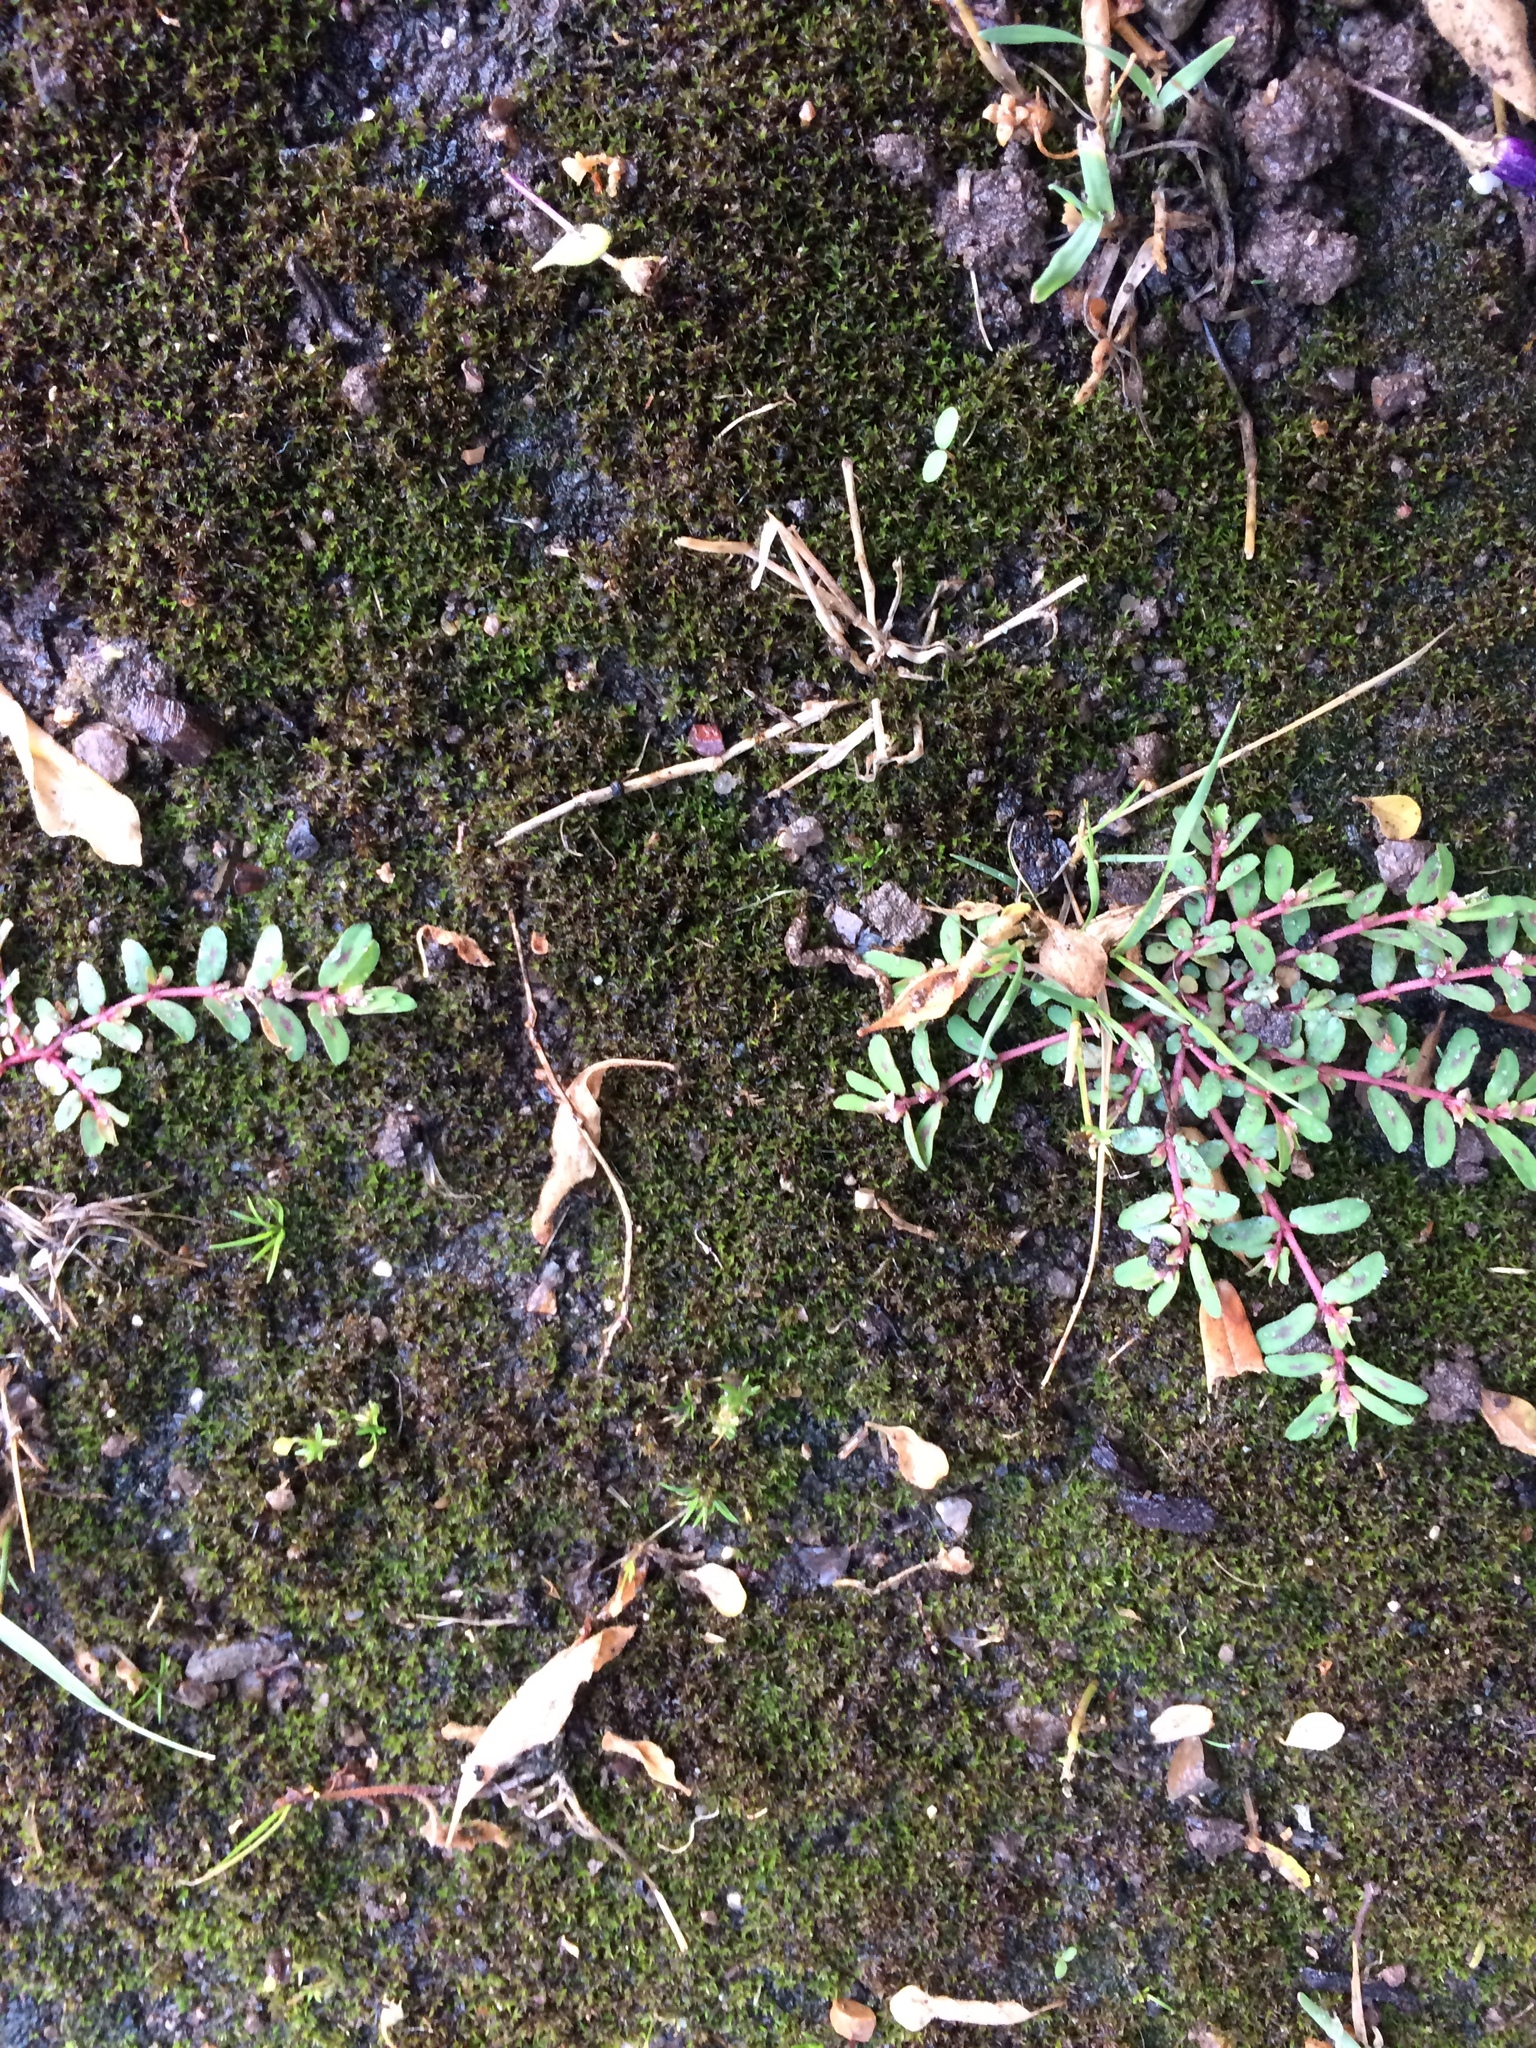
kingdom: Plantae
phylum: Tracheophyta
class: Magnoliopsida
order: Malpighiales
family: Euphorbiaceae
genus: Euphorbia
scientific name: Euphorbia maculata
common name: Spotted spurge
